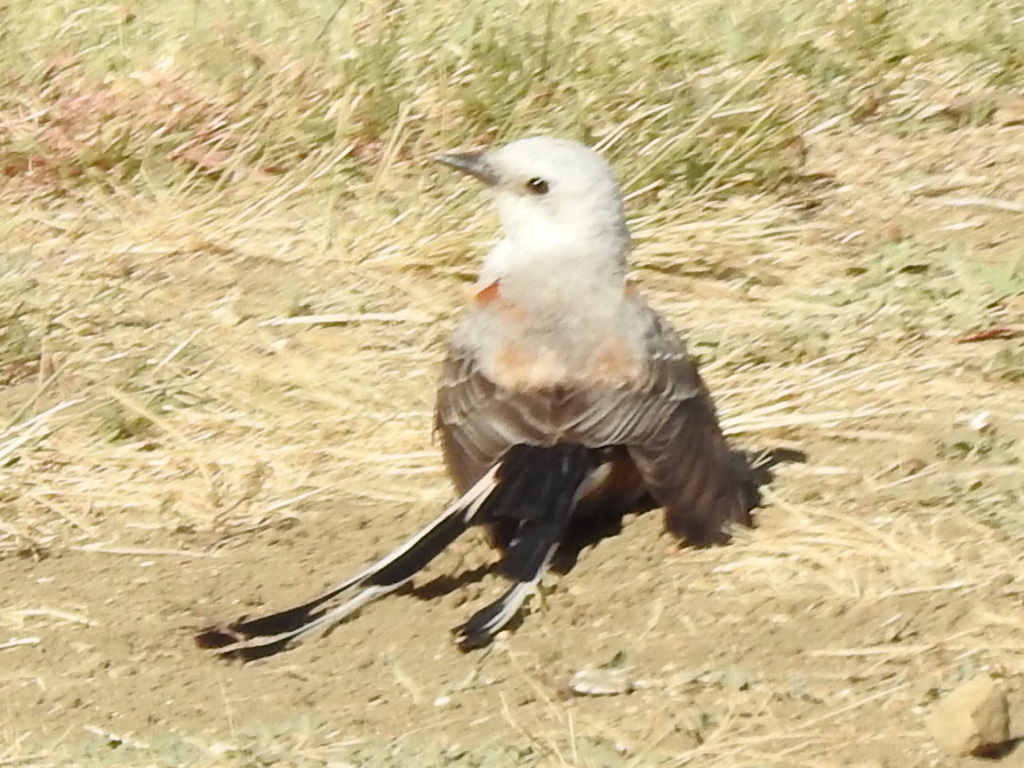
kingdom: Animalia
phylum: Chordata
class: Aves
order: Passeriformes
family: Tyrannidae
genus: Tyrannus
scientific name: Tyrannus forficatus
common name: Scissor-tailed flycatcher
